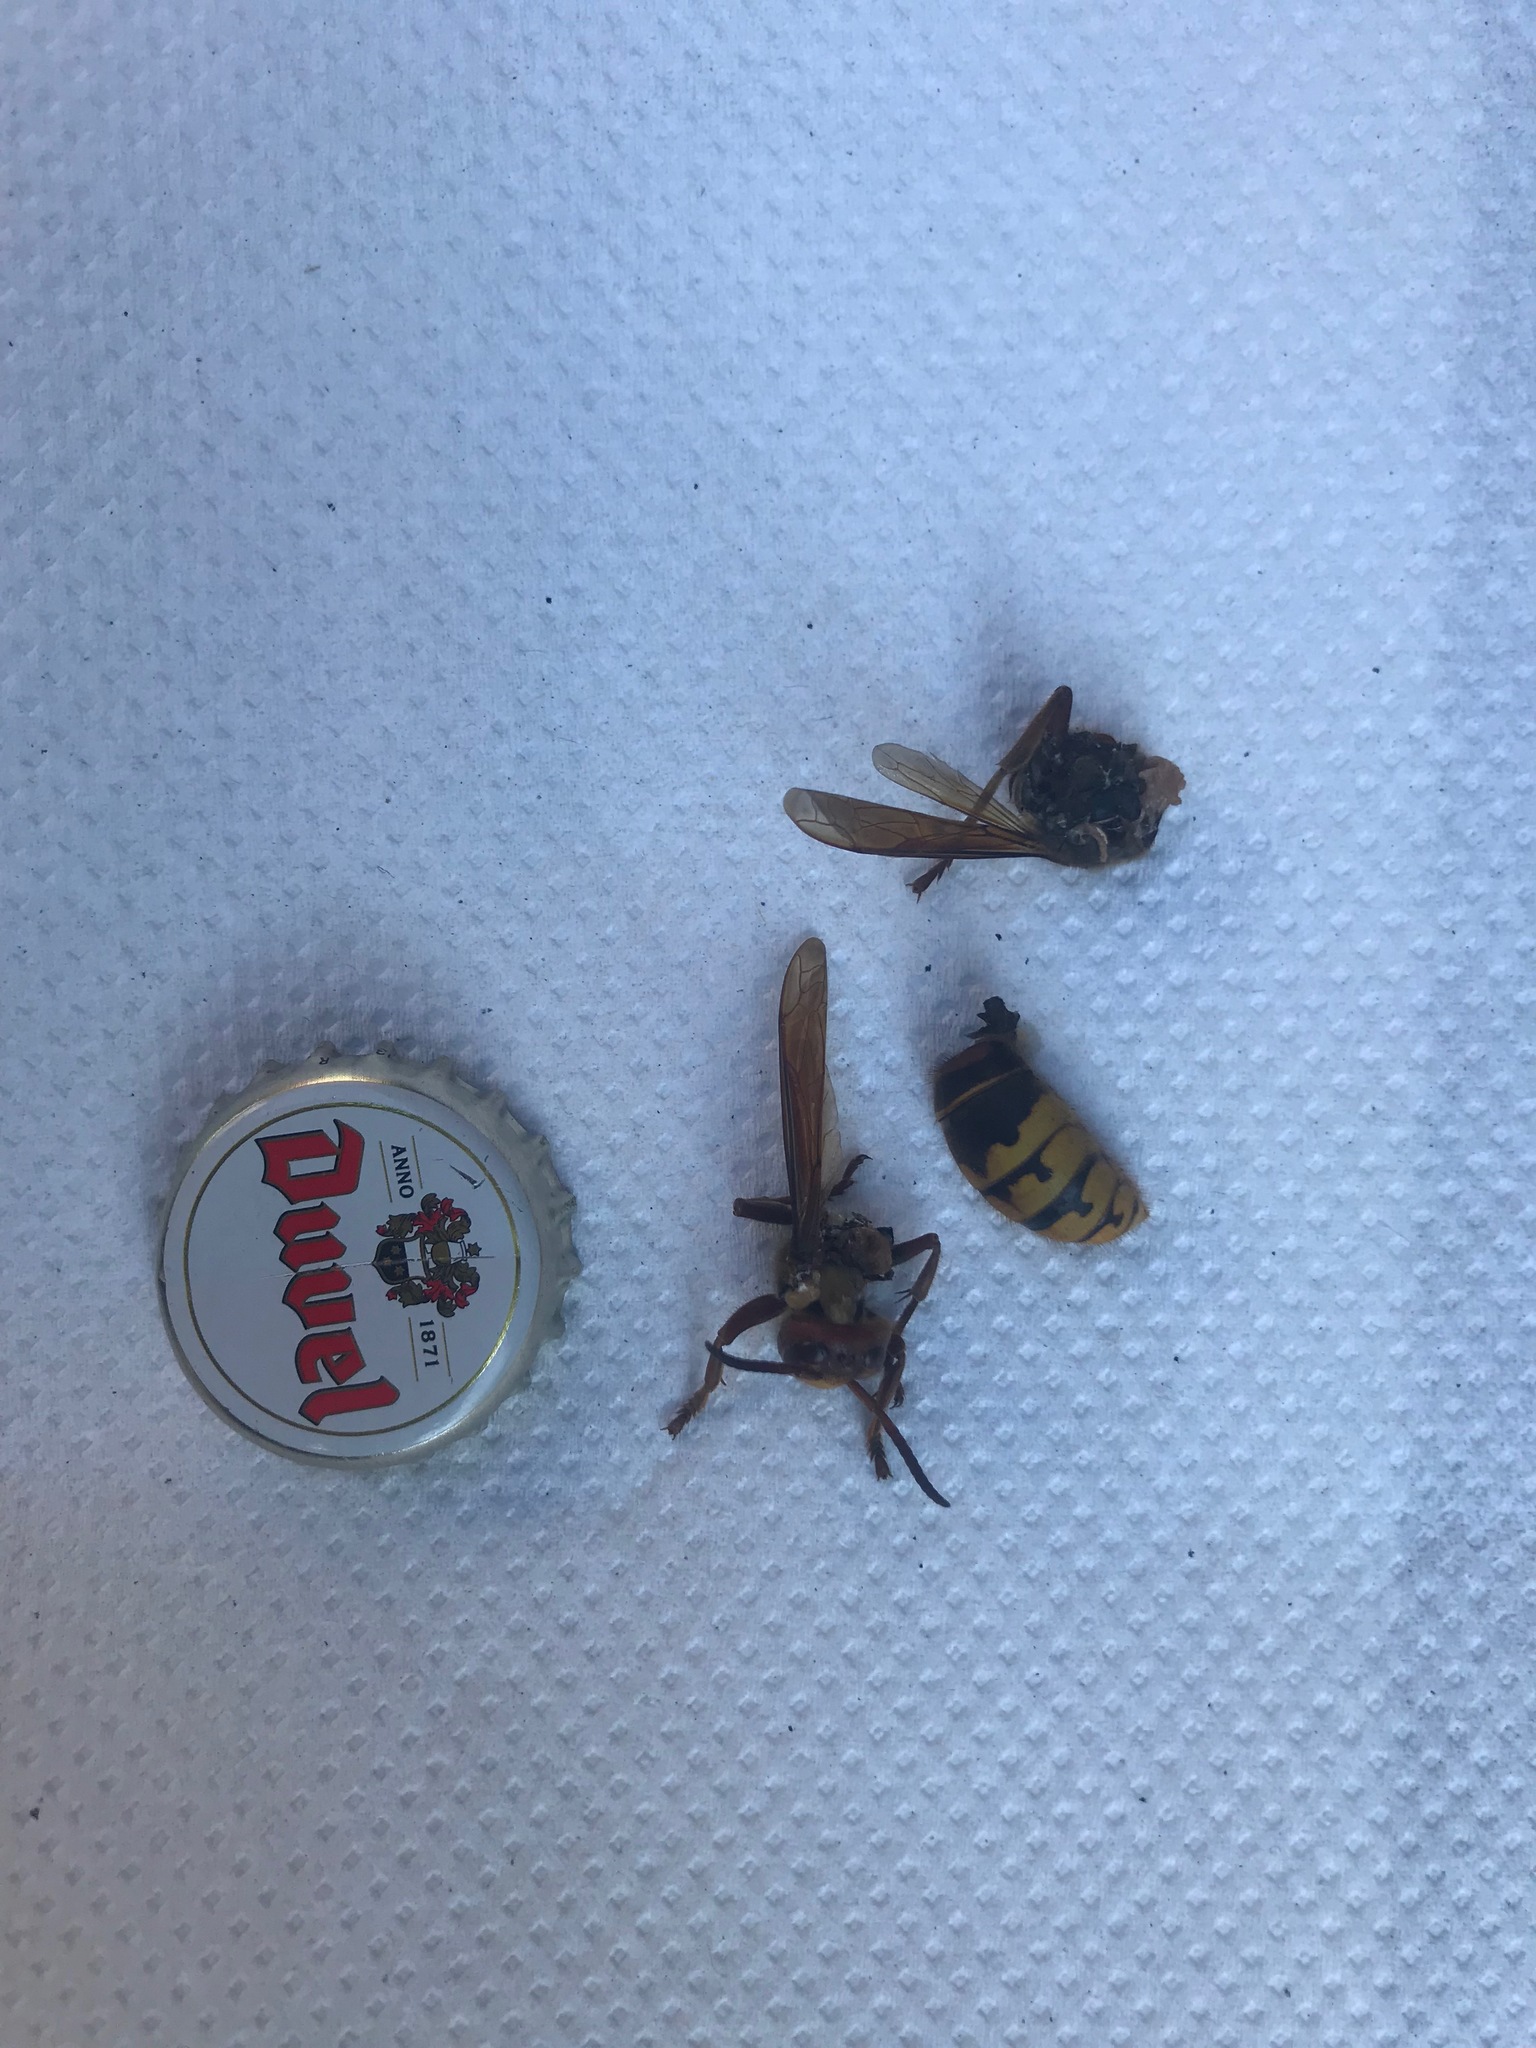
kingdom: Animalia
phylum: Arthropoda
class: Insecta
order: Hymenoptera
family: Vespidae
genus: Vespa
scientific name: Vespa crabro
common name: Hornet
